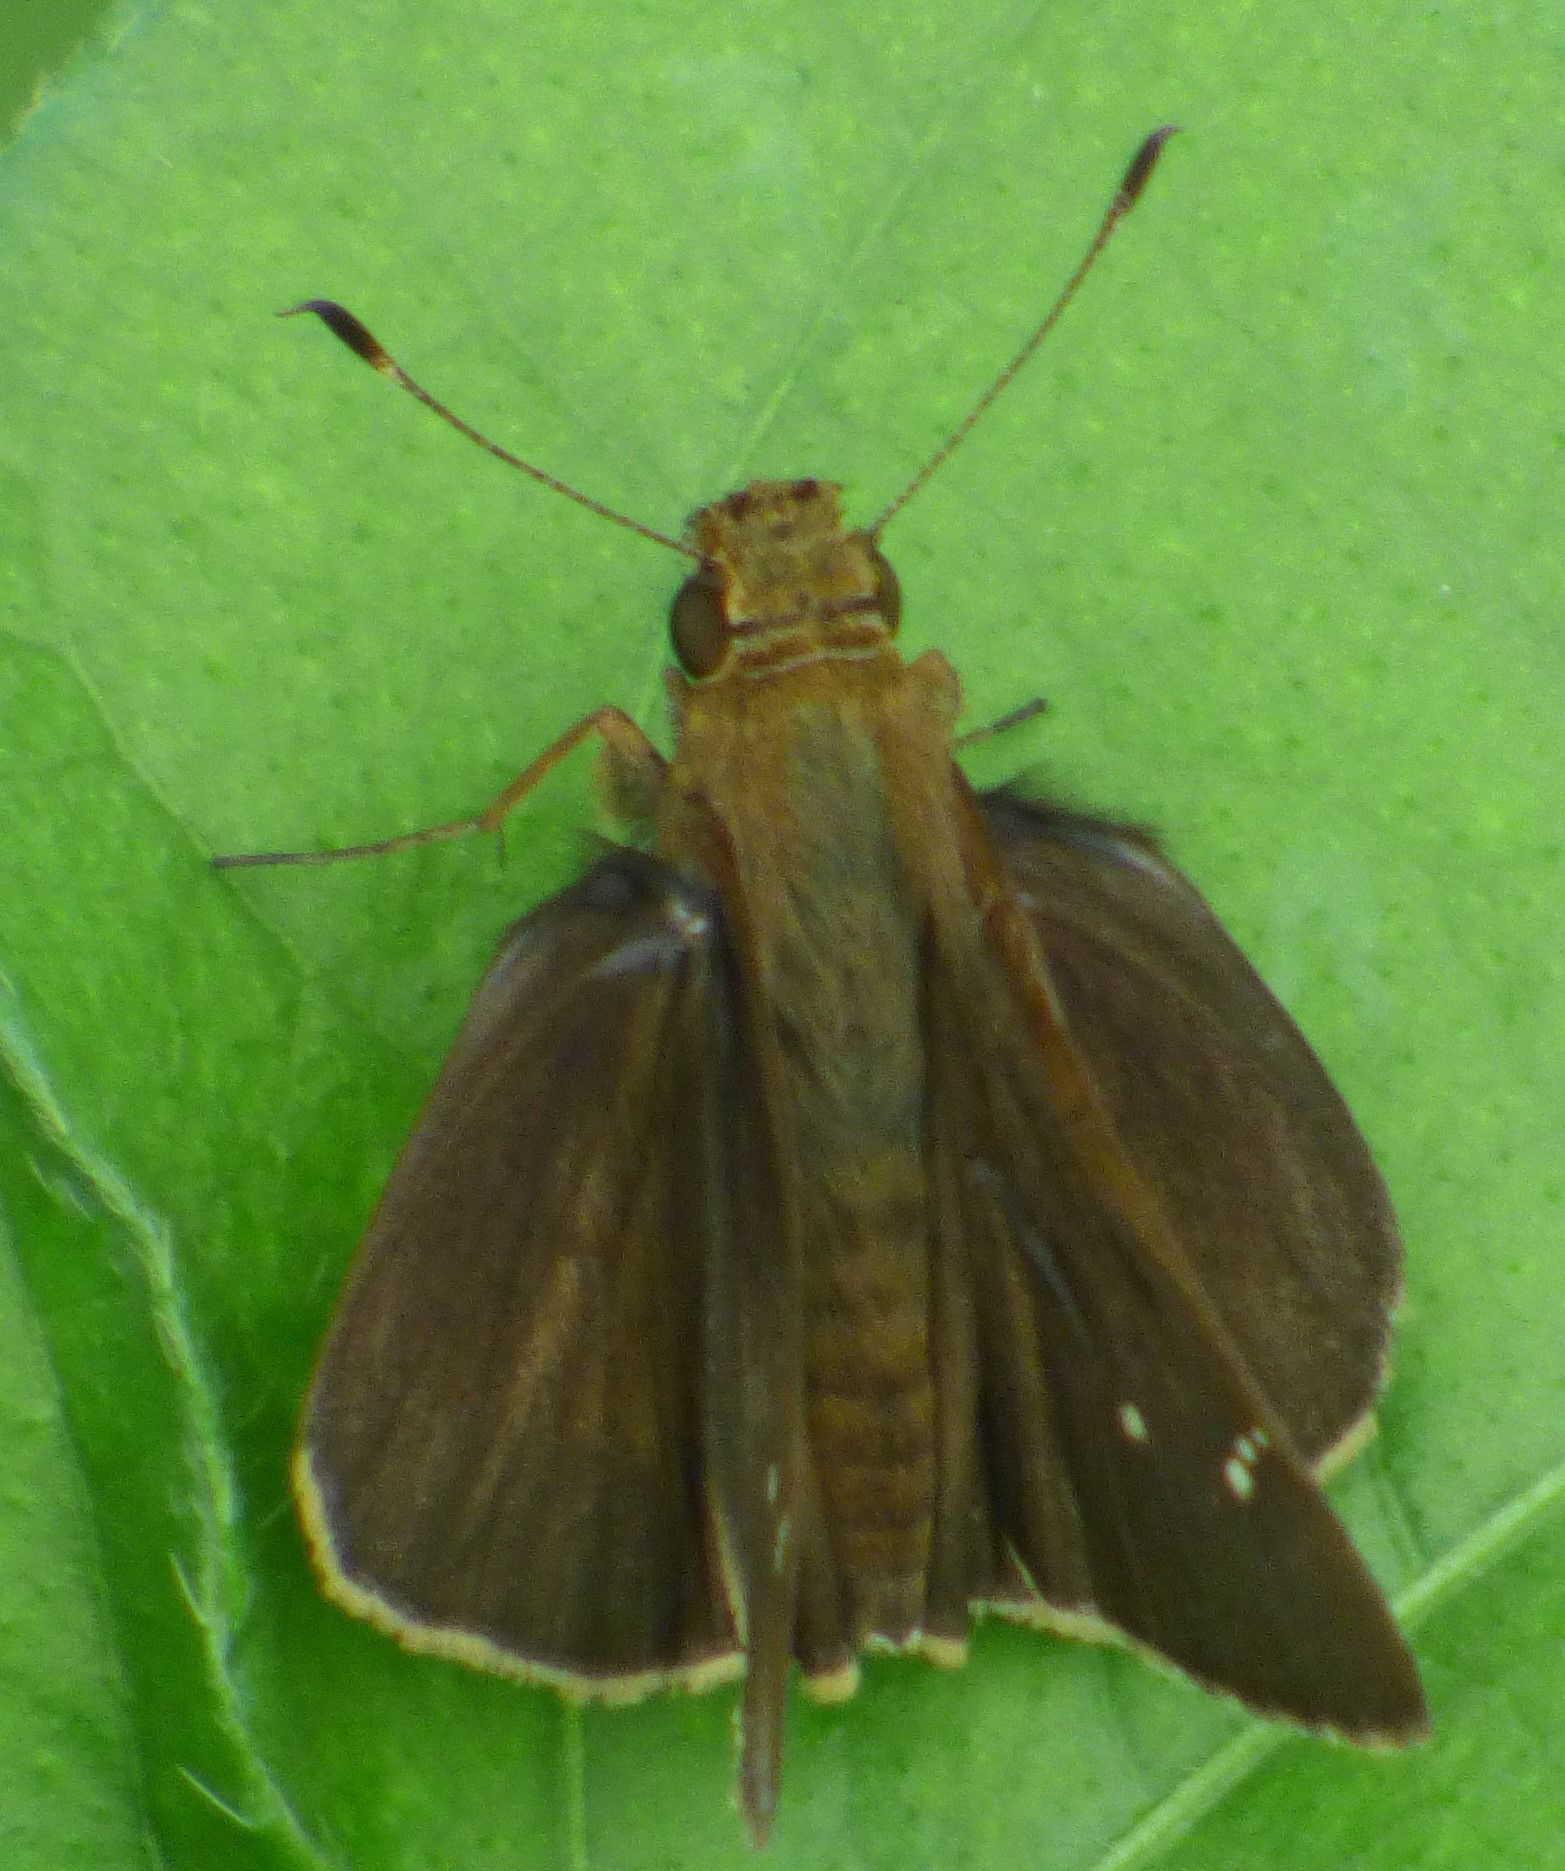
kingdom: Animalia
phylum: Arthropoda
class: Insecta
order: Lepidoptera
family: Hesperiidae
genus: Lerema
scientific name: Lerema accius
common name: Clouded skipper
